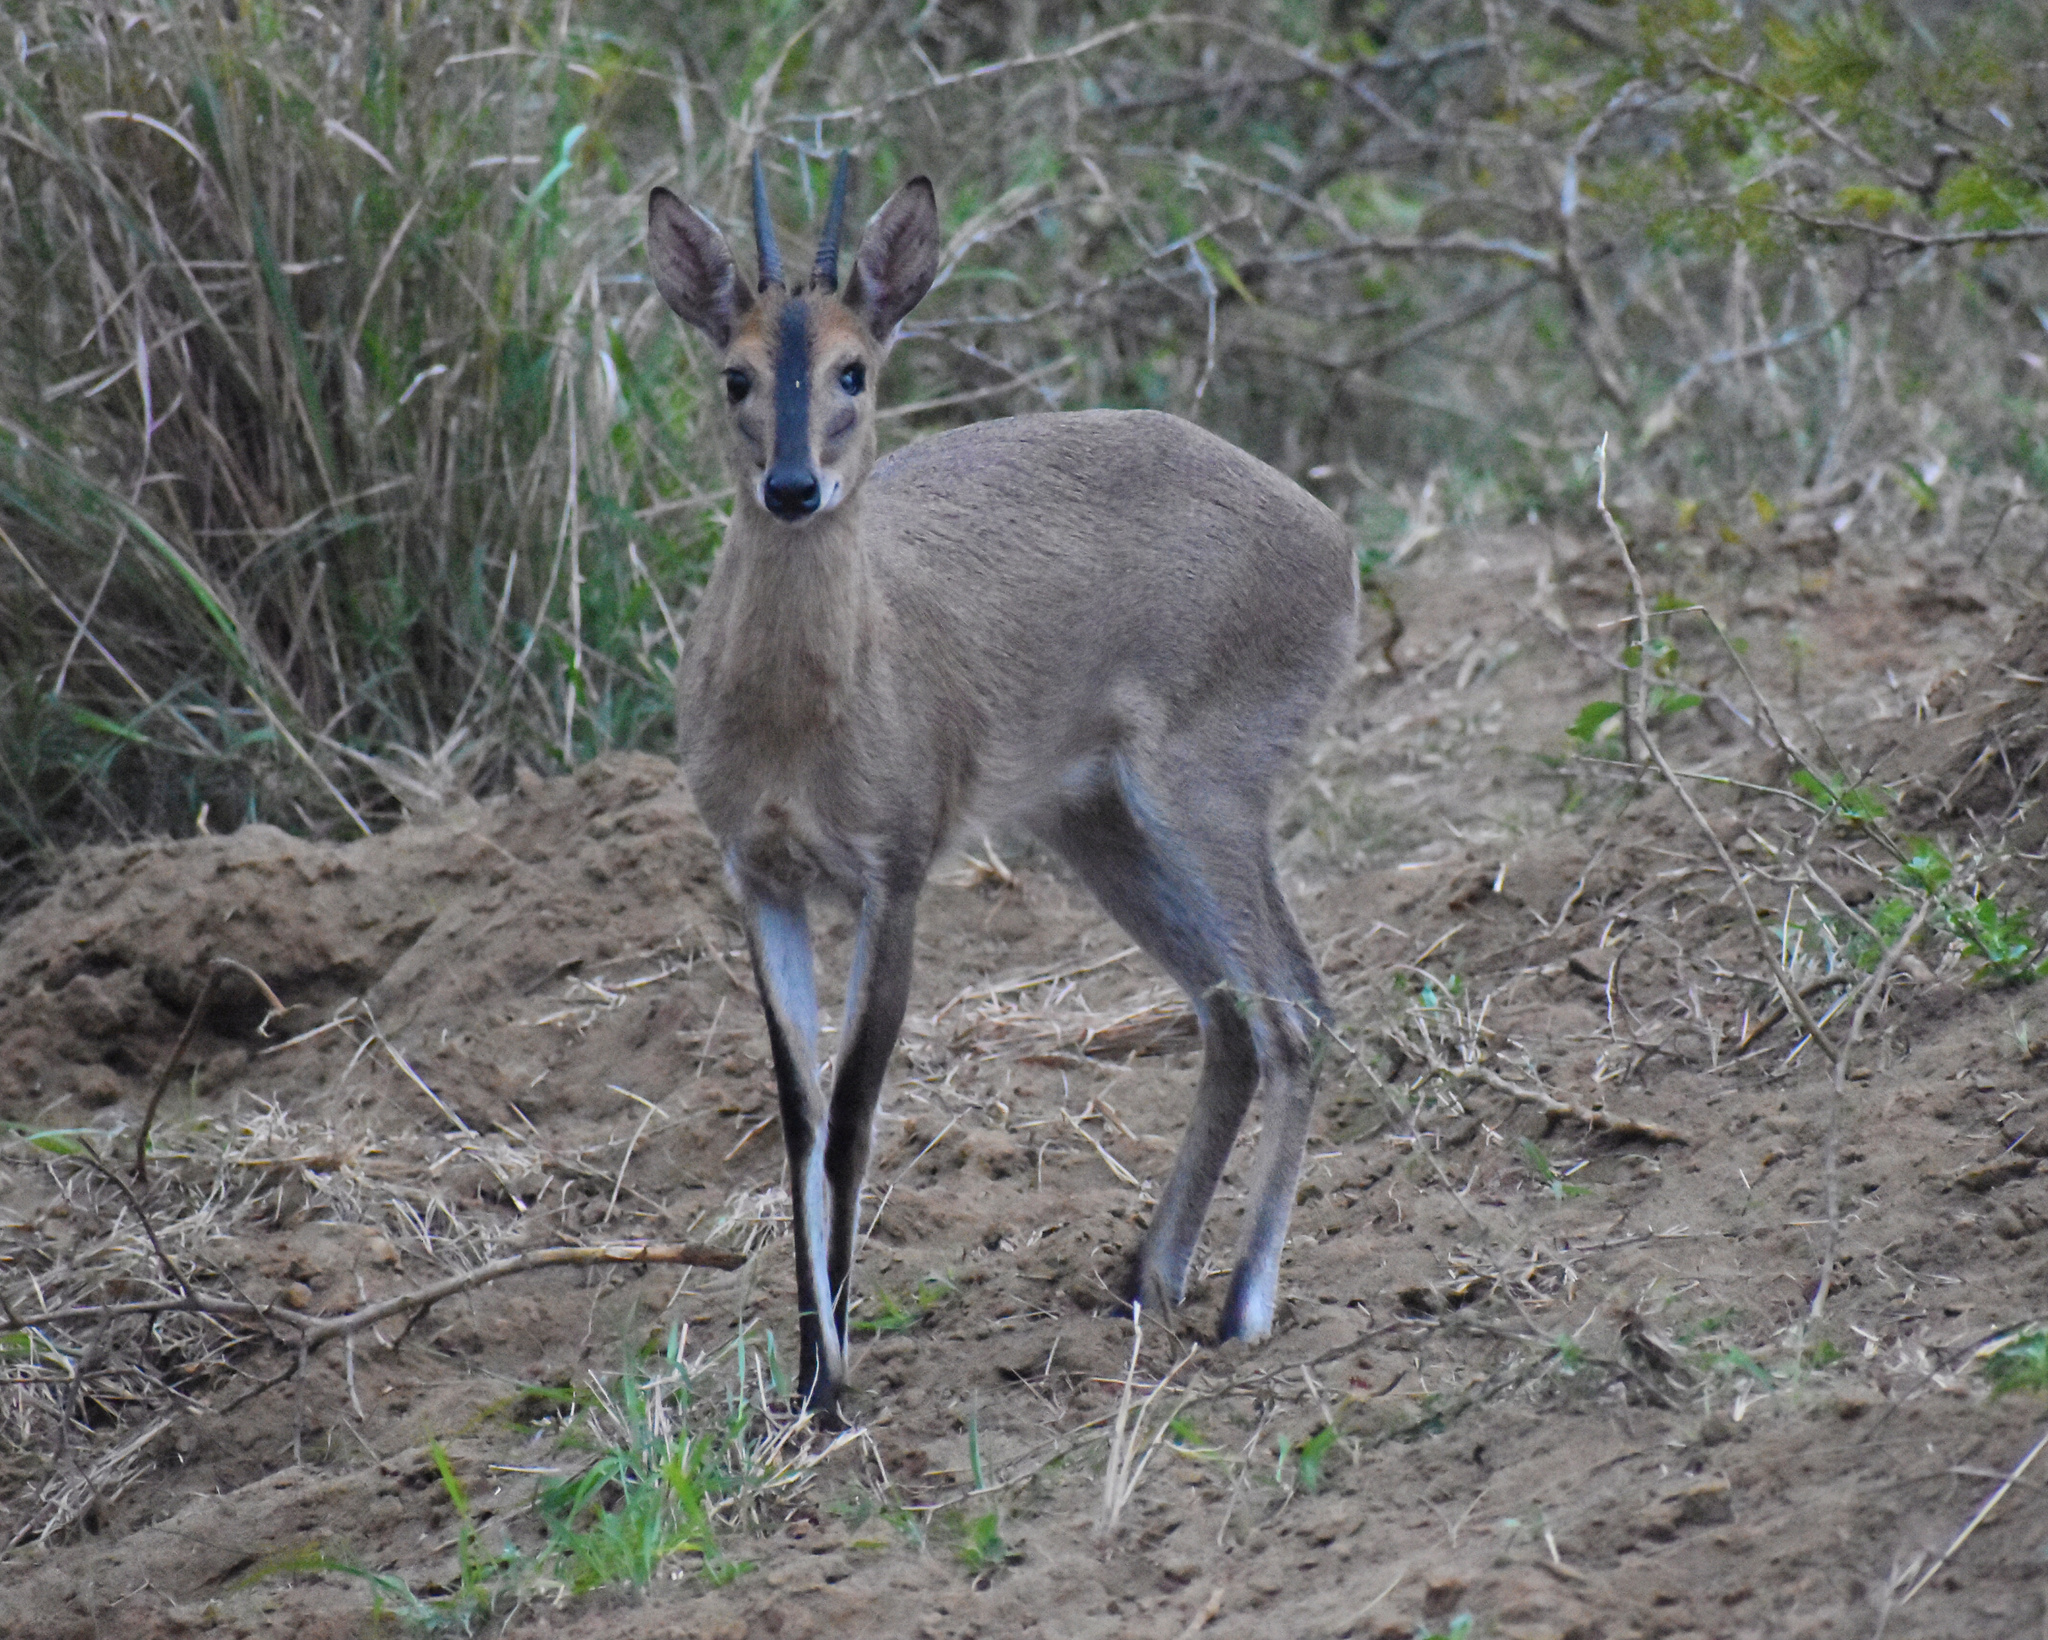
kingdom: Animalia
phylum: Chordata
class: Mammalia
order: Artiodactyla
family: Bovidae
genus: Sylvicapra
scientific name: Sylvicapra grimmia
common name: Bush duiker
